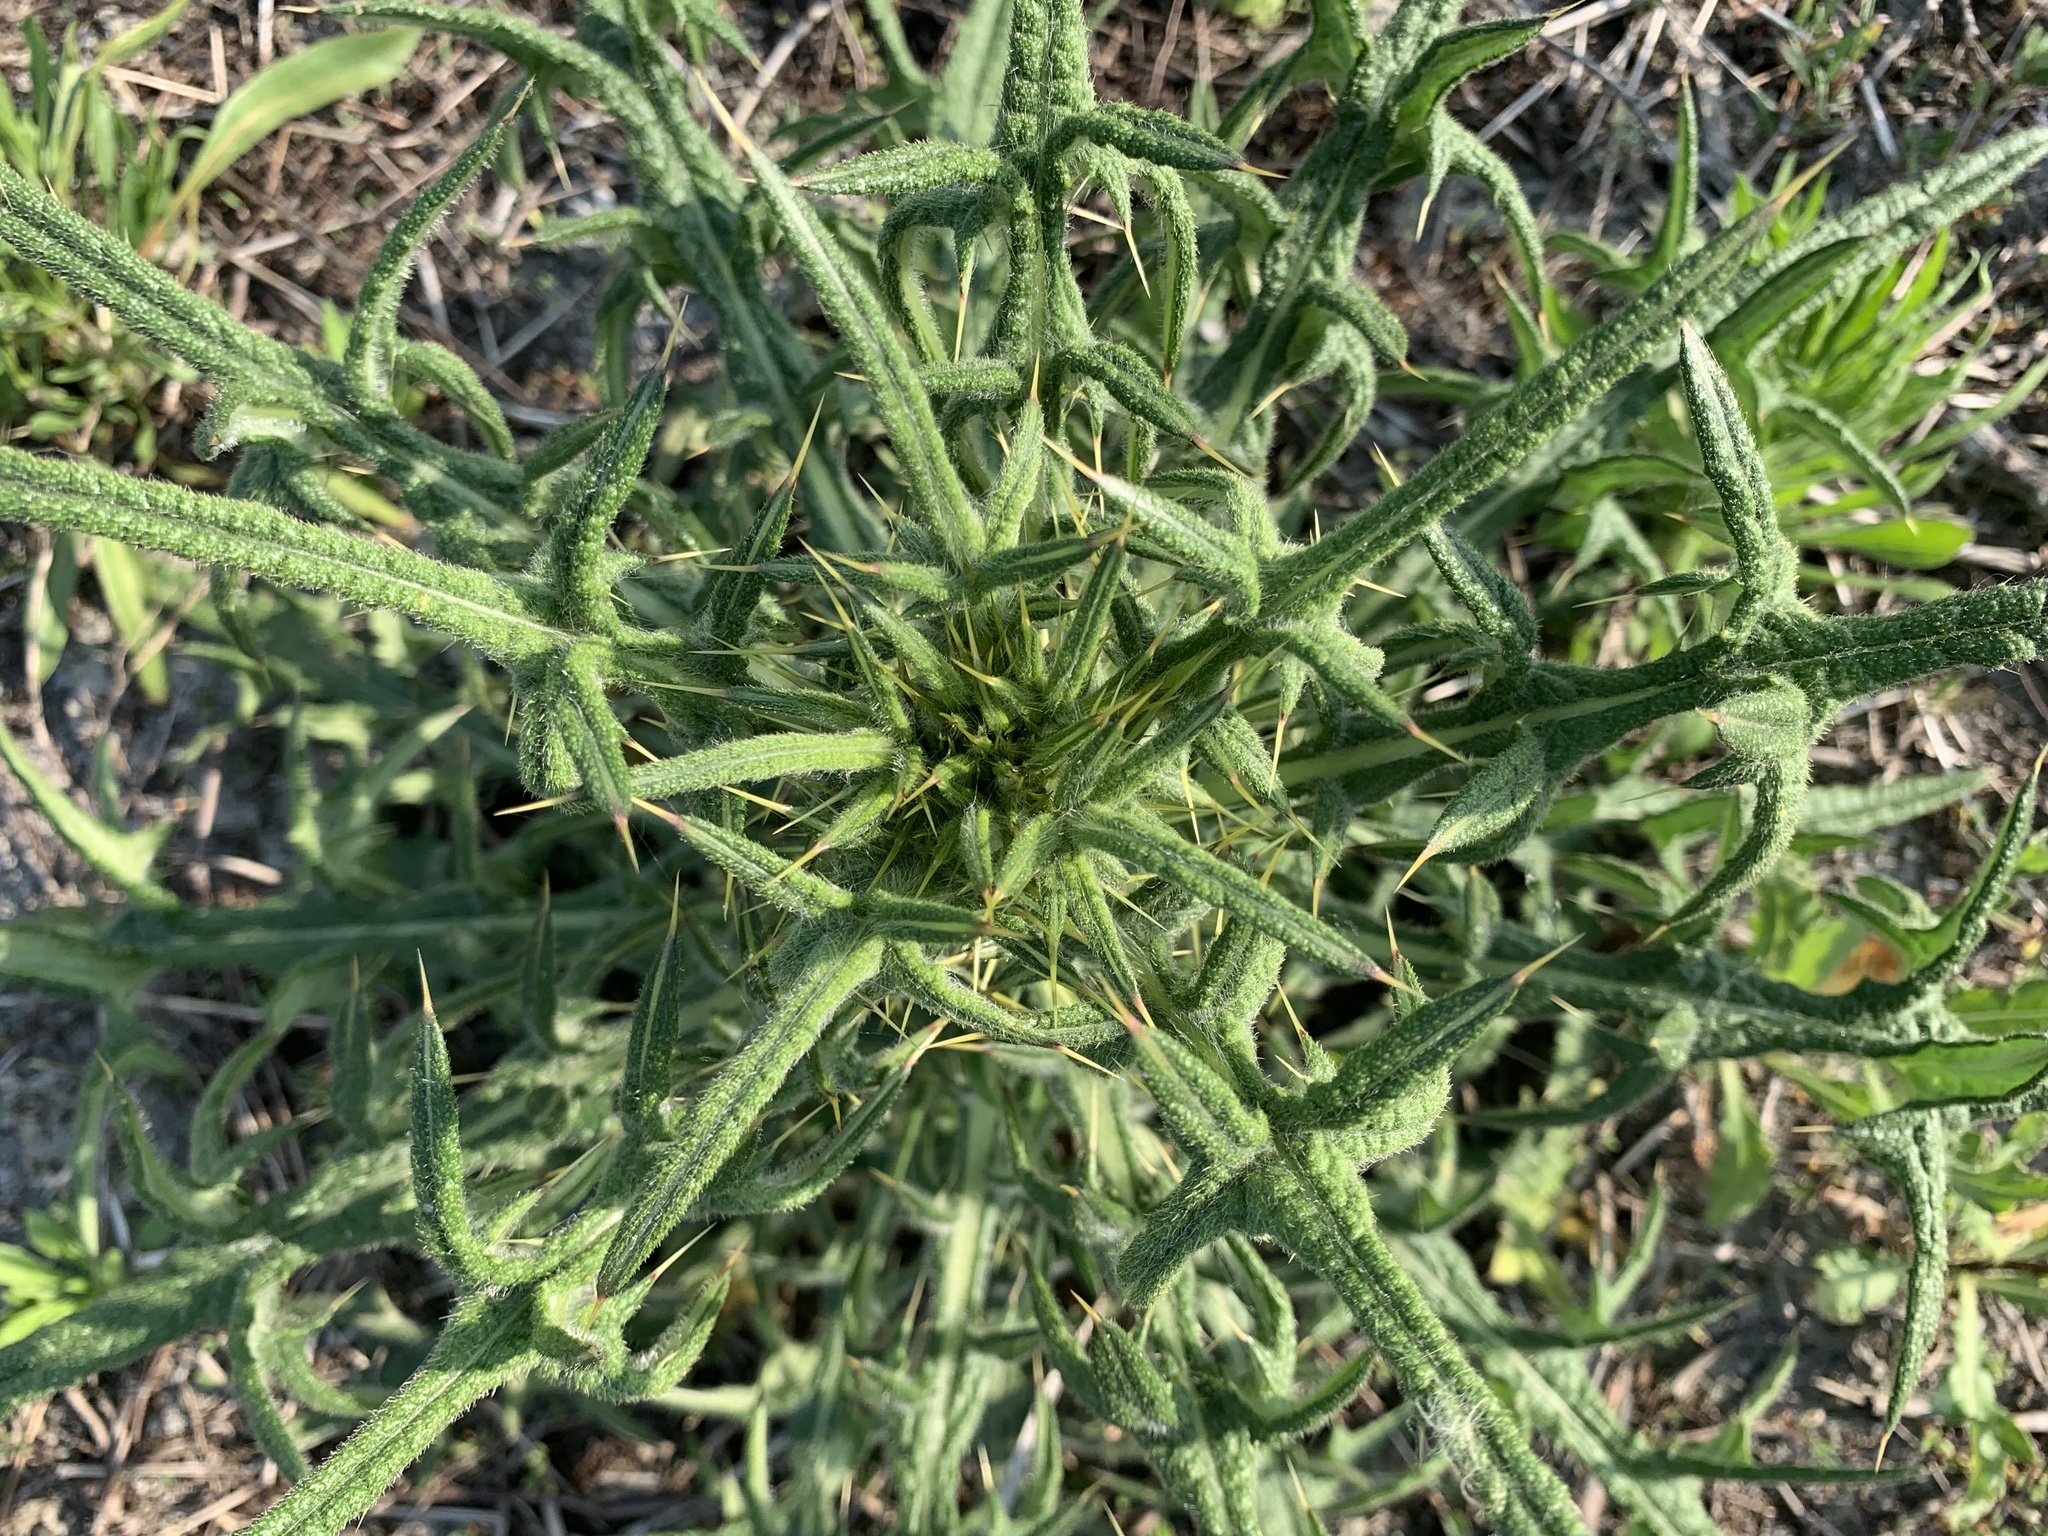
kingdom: Plantae
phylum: Tracheophyta
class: Magnoliopsida
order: Asterales
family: Asteraceae
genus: Cirsium
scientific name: Cirsium vulgare
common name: Bull thistle
